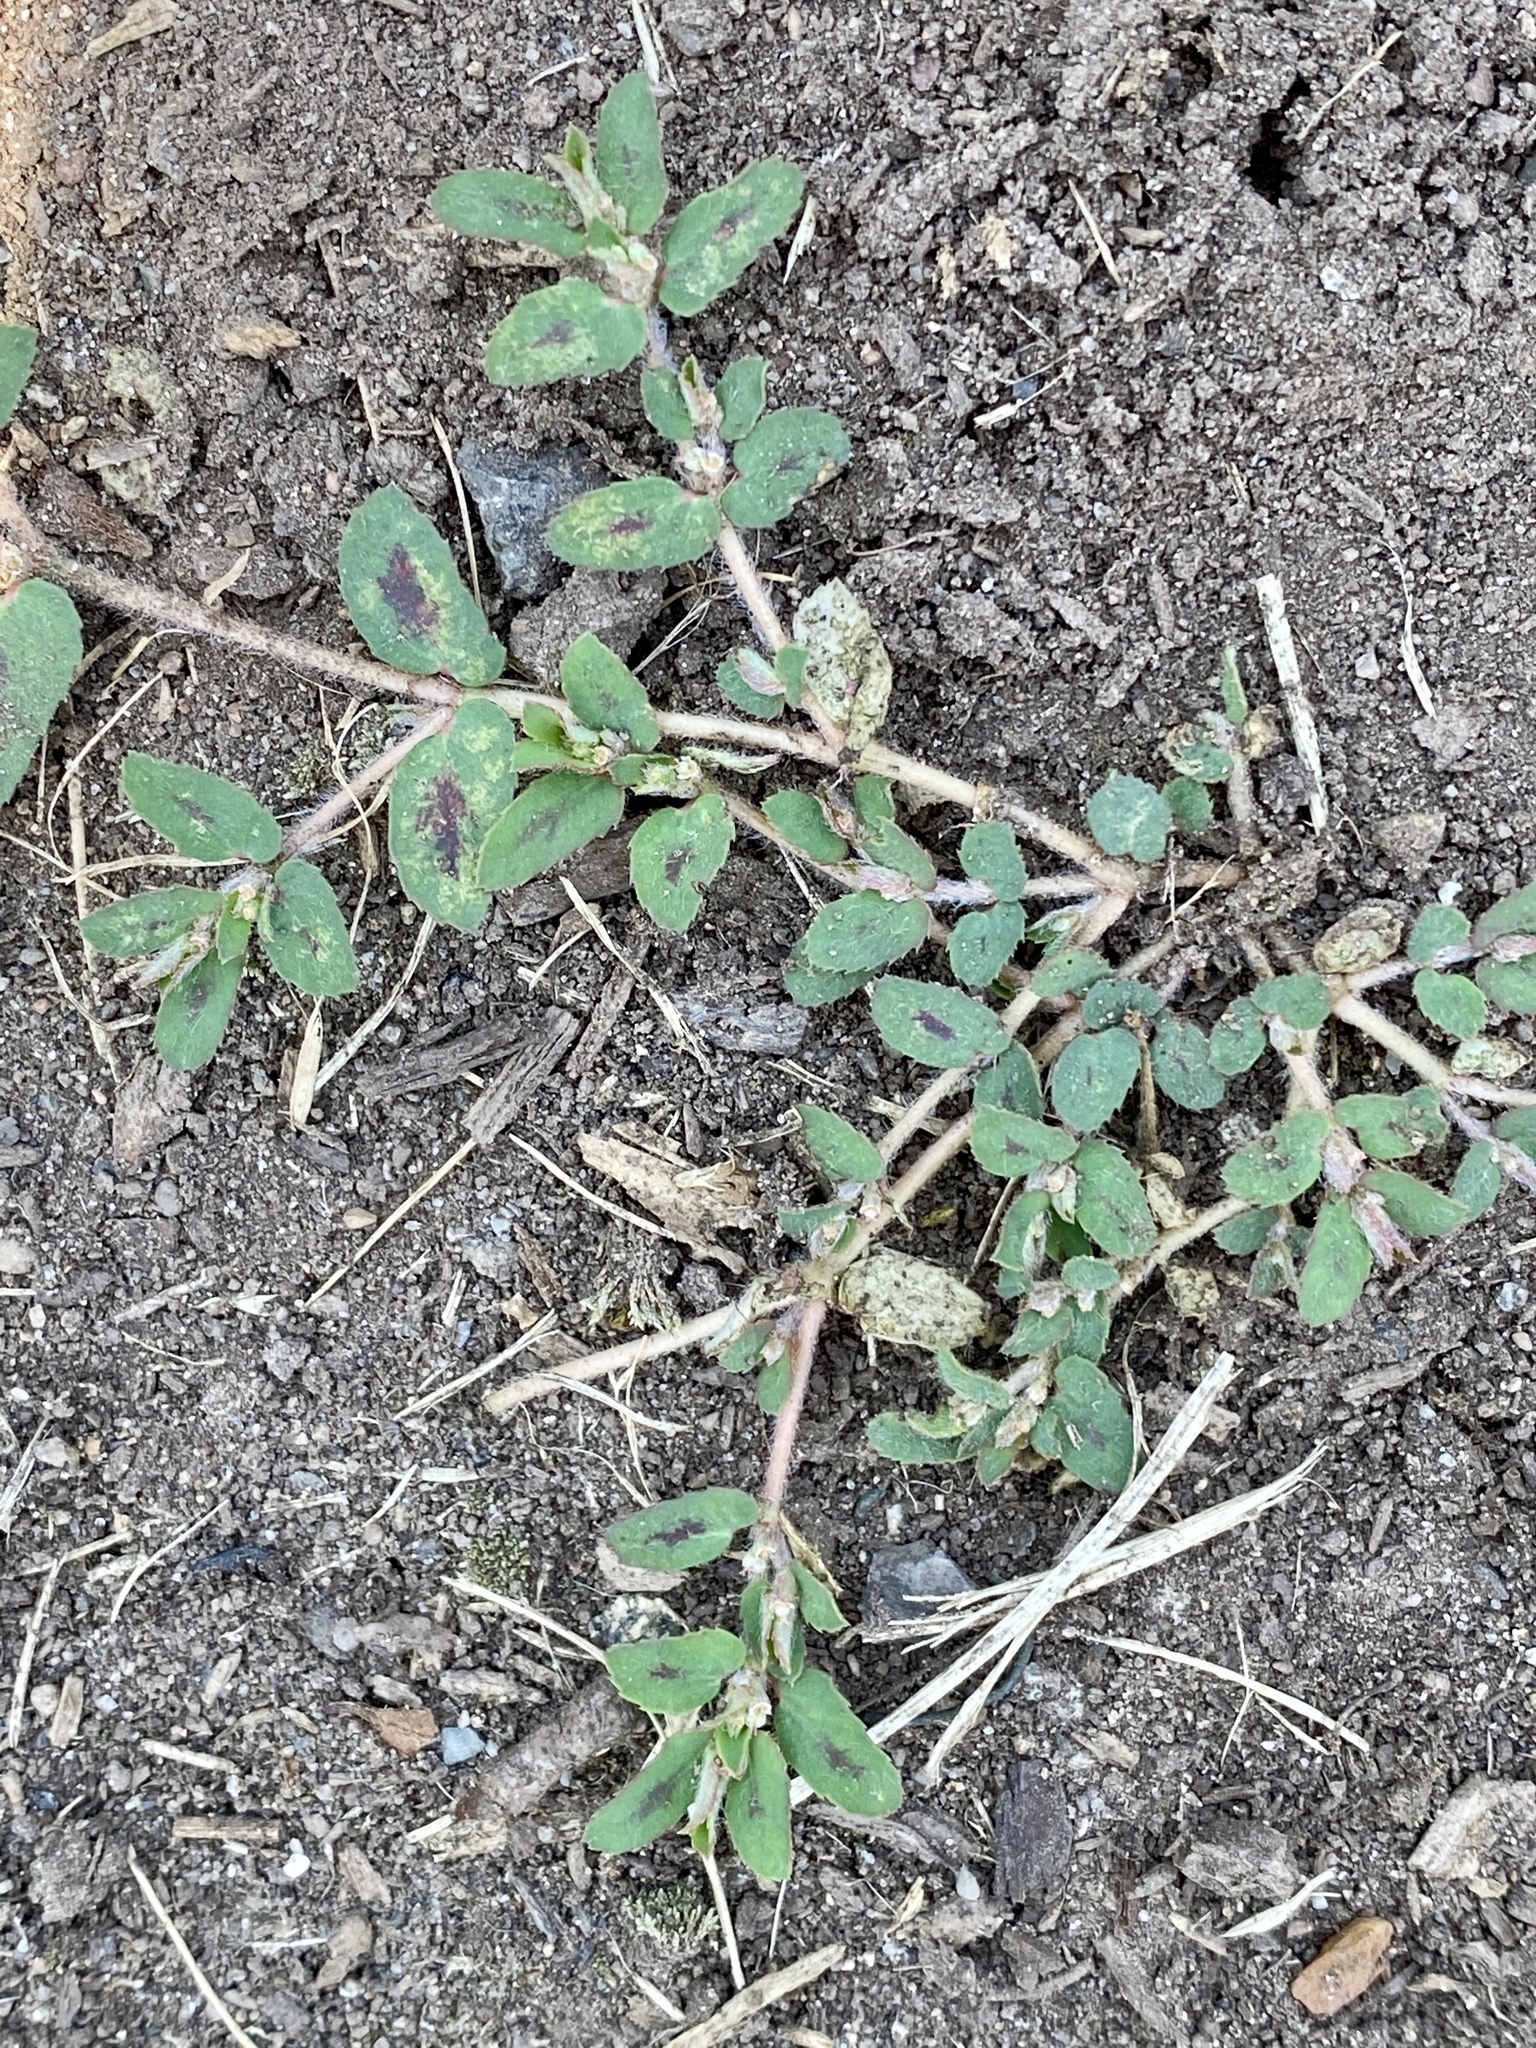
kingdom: Plantae
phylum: Tracheophyta
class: Magnoliopsida
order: Malpighiales
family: Euphorbiaceae
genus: Euphorbia
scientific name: Euphorbia maculata
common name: Spotted spurge
